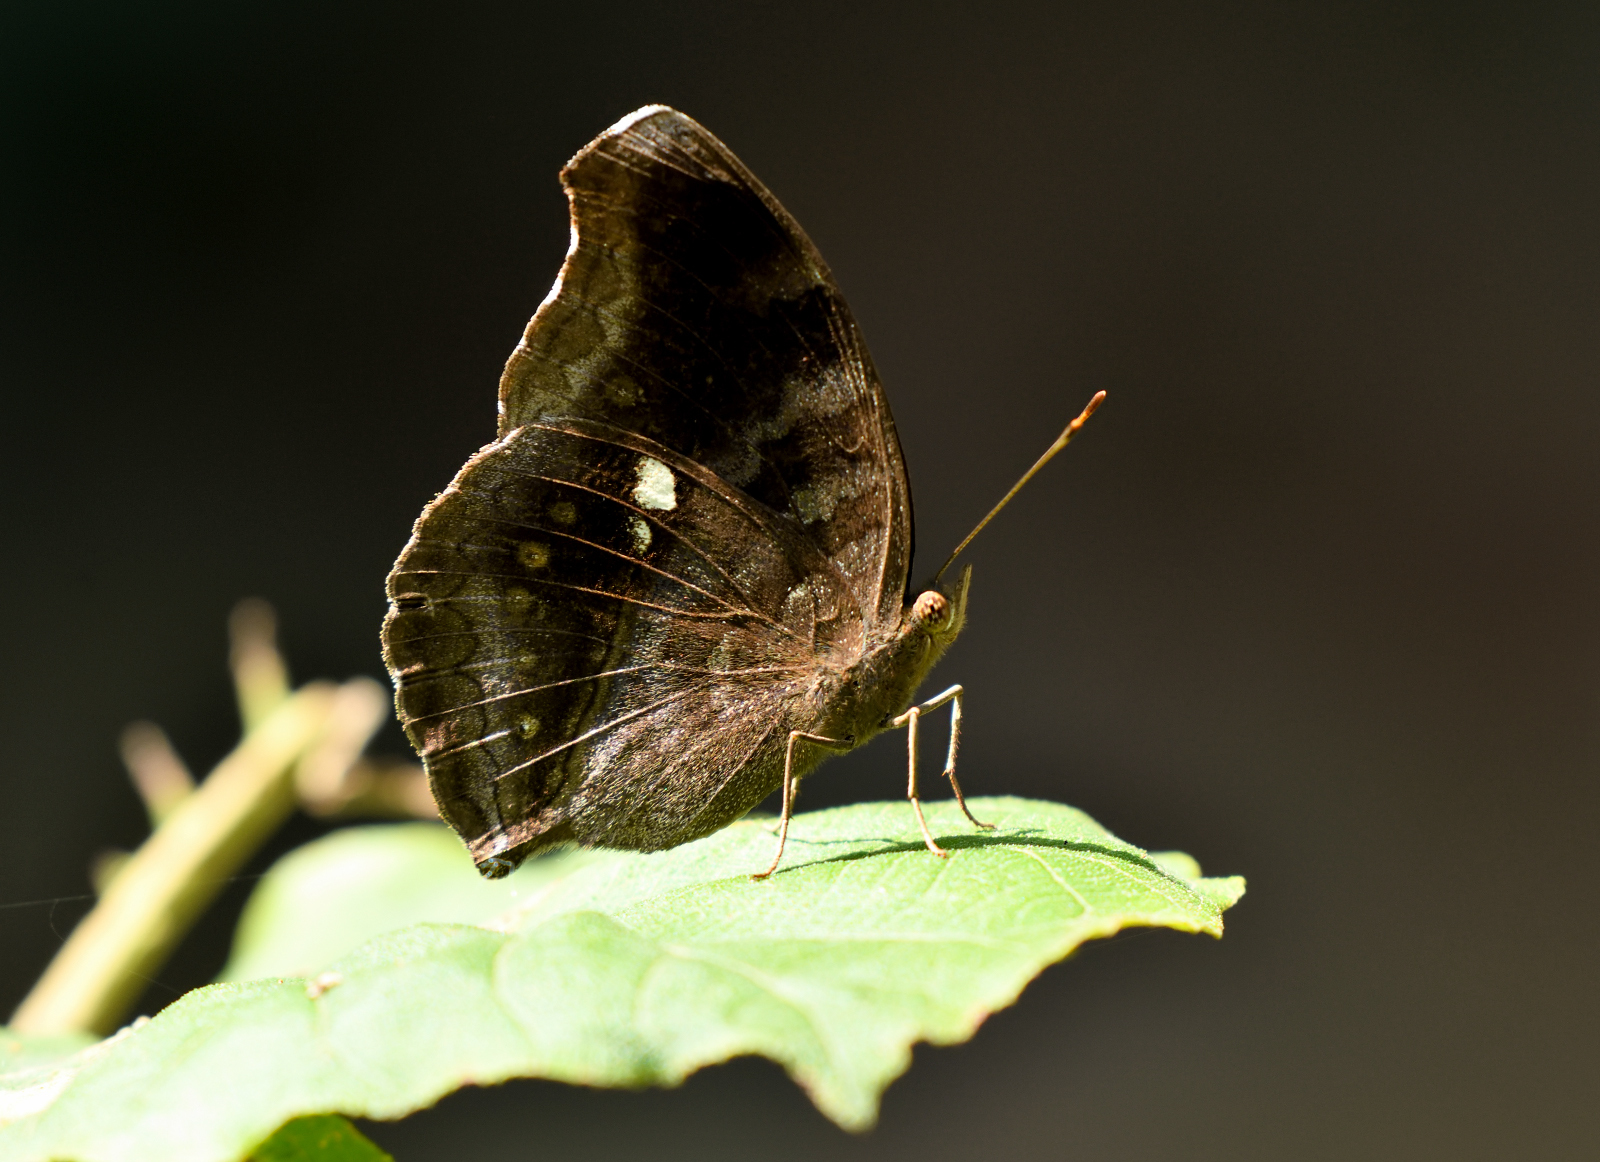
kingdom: Animalia
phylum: Arthropoda
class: Insecta
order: Lepidoptera
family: Nymphalidae
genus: Junonia
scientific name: Junonia iphita
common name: Chocolate pansy
